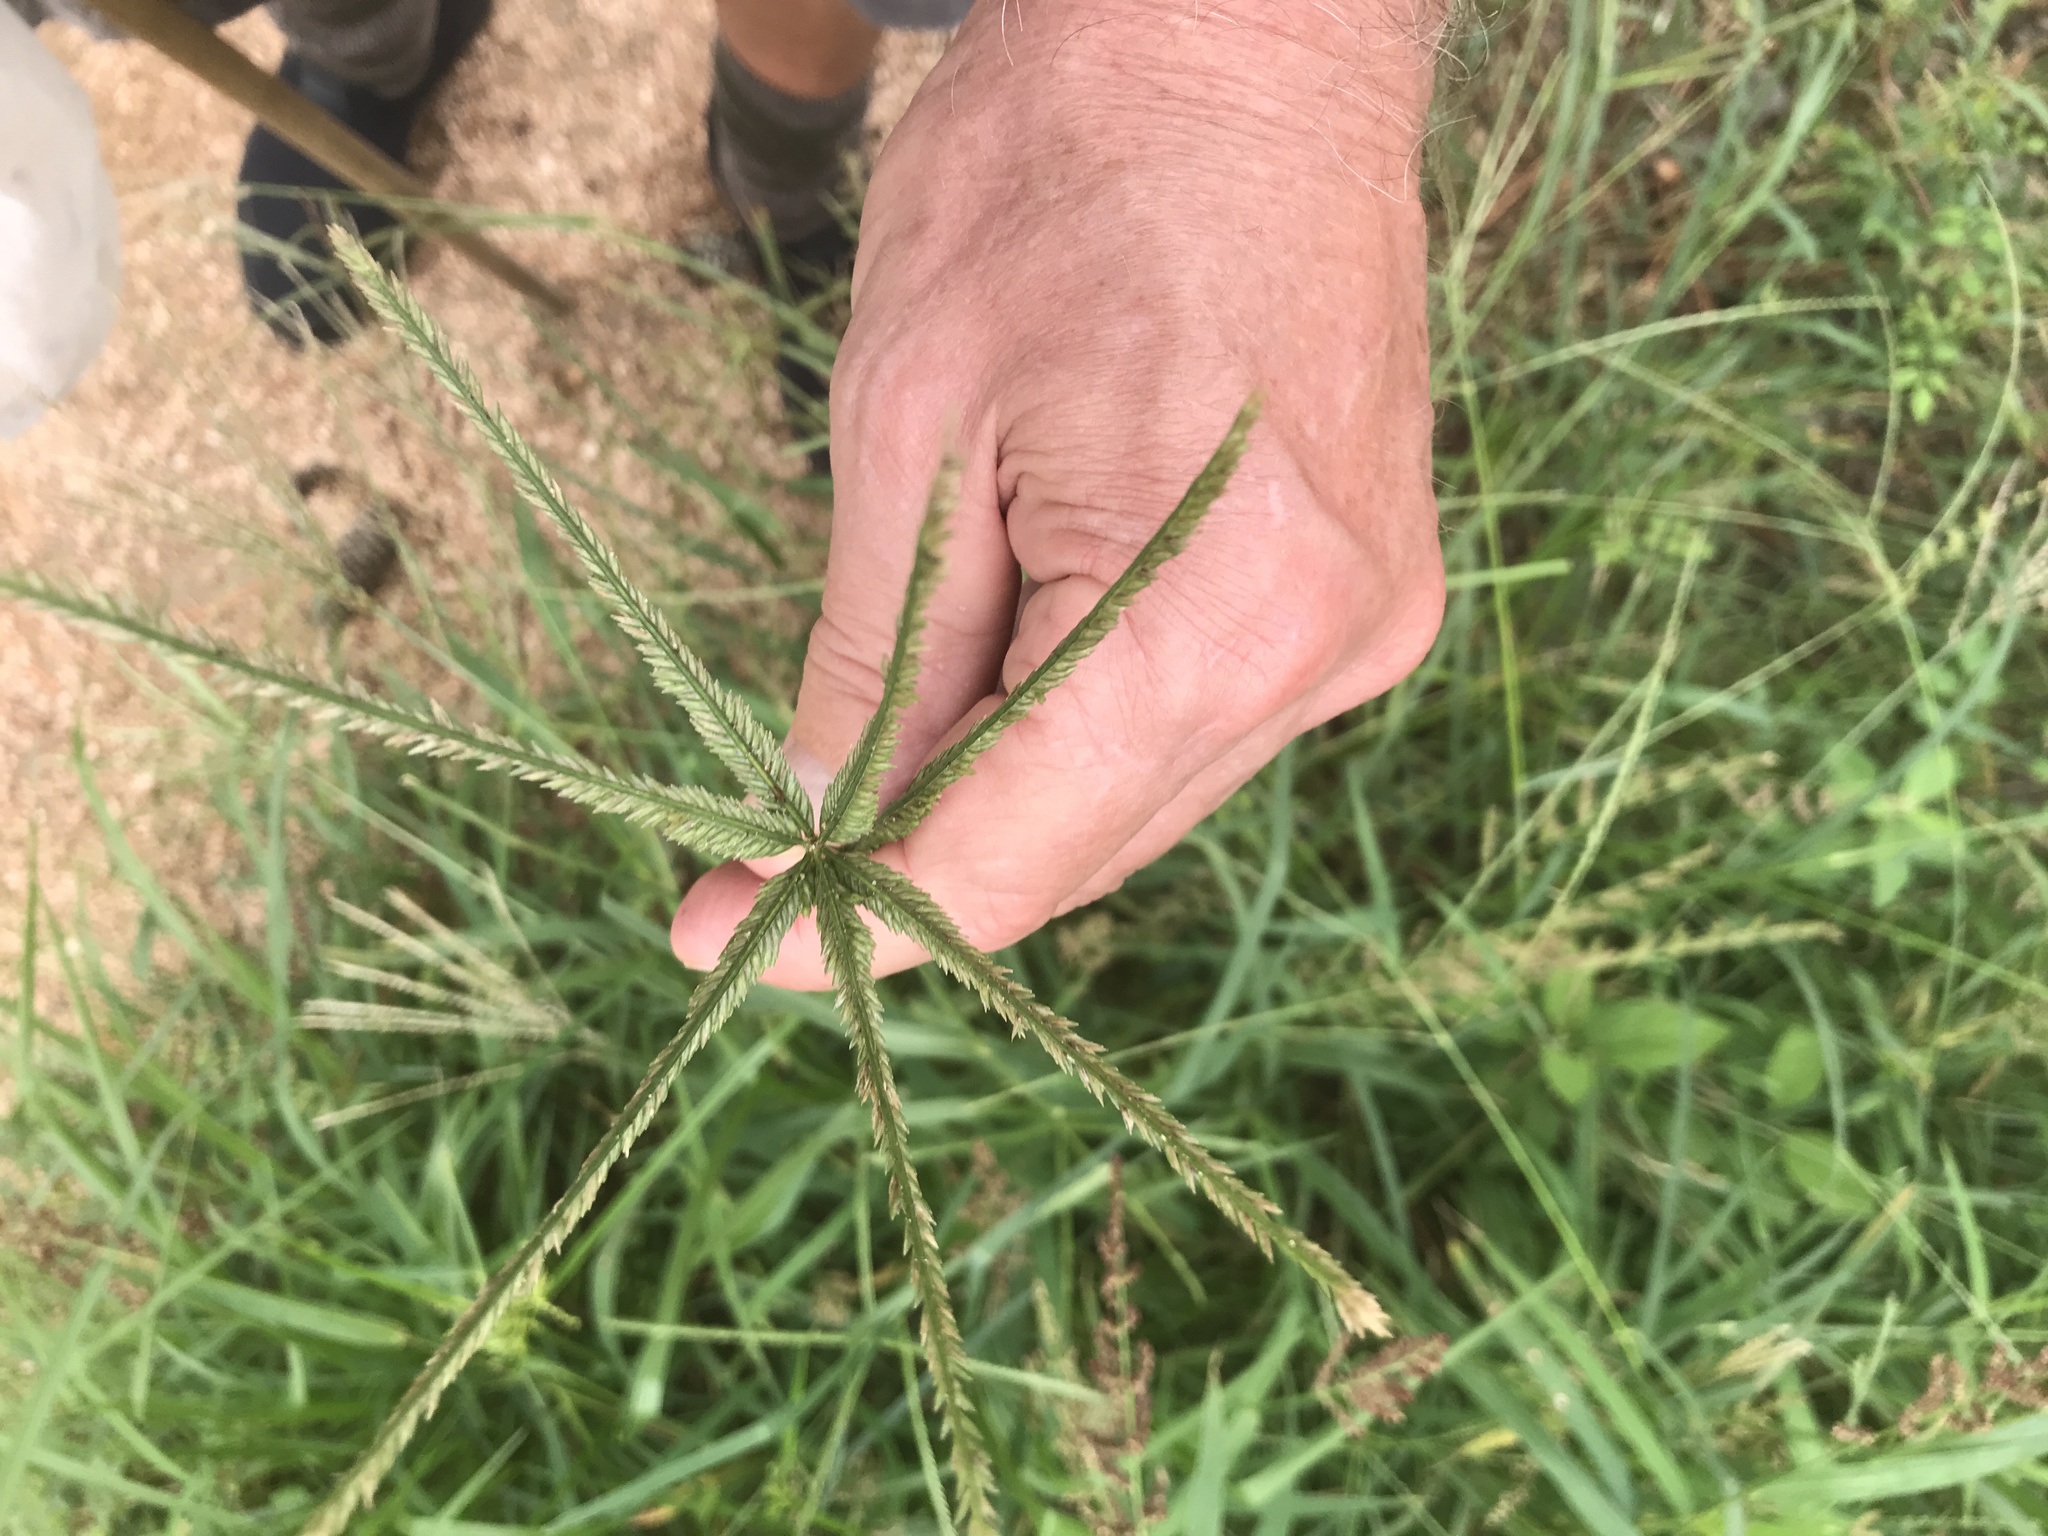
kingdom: Plantae
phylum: Tracheophyta
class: Liliopsida
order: Poales
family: Poaceae
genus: Eleusine
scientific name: Eleusine indica
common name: Yard-grass
